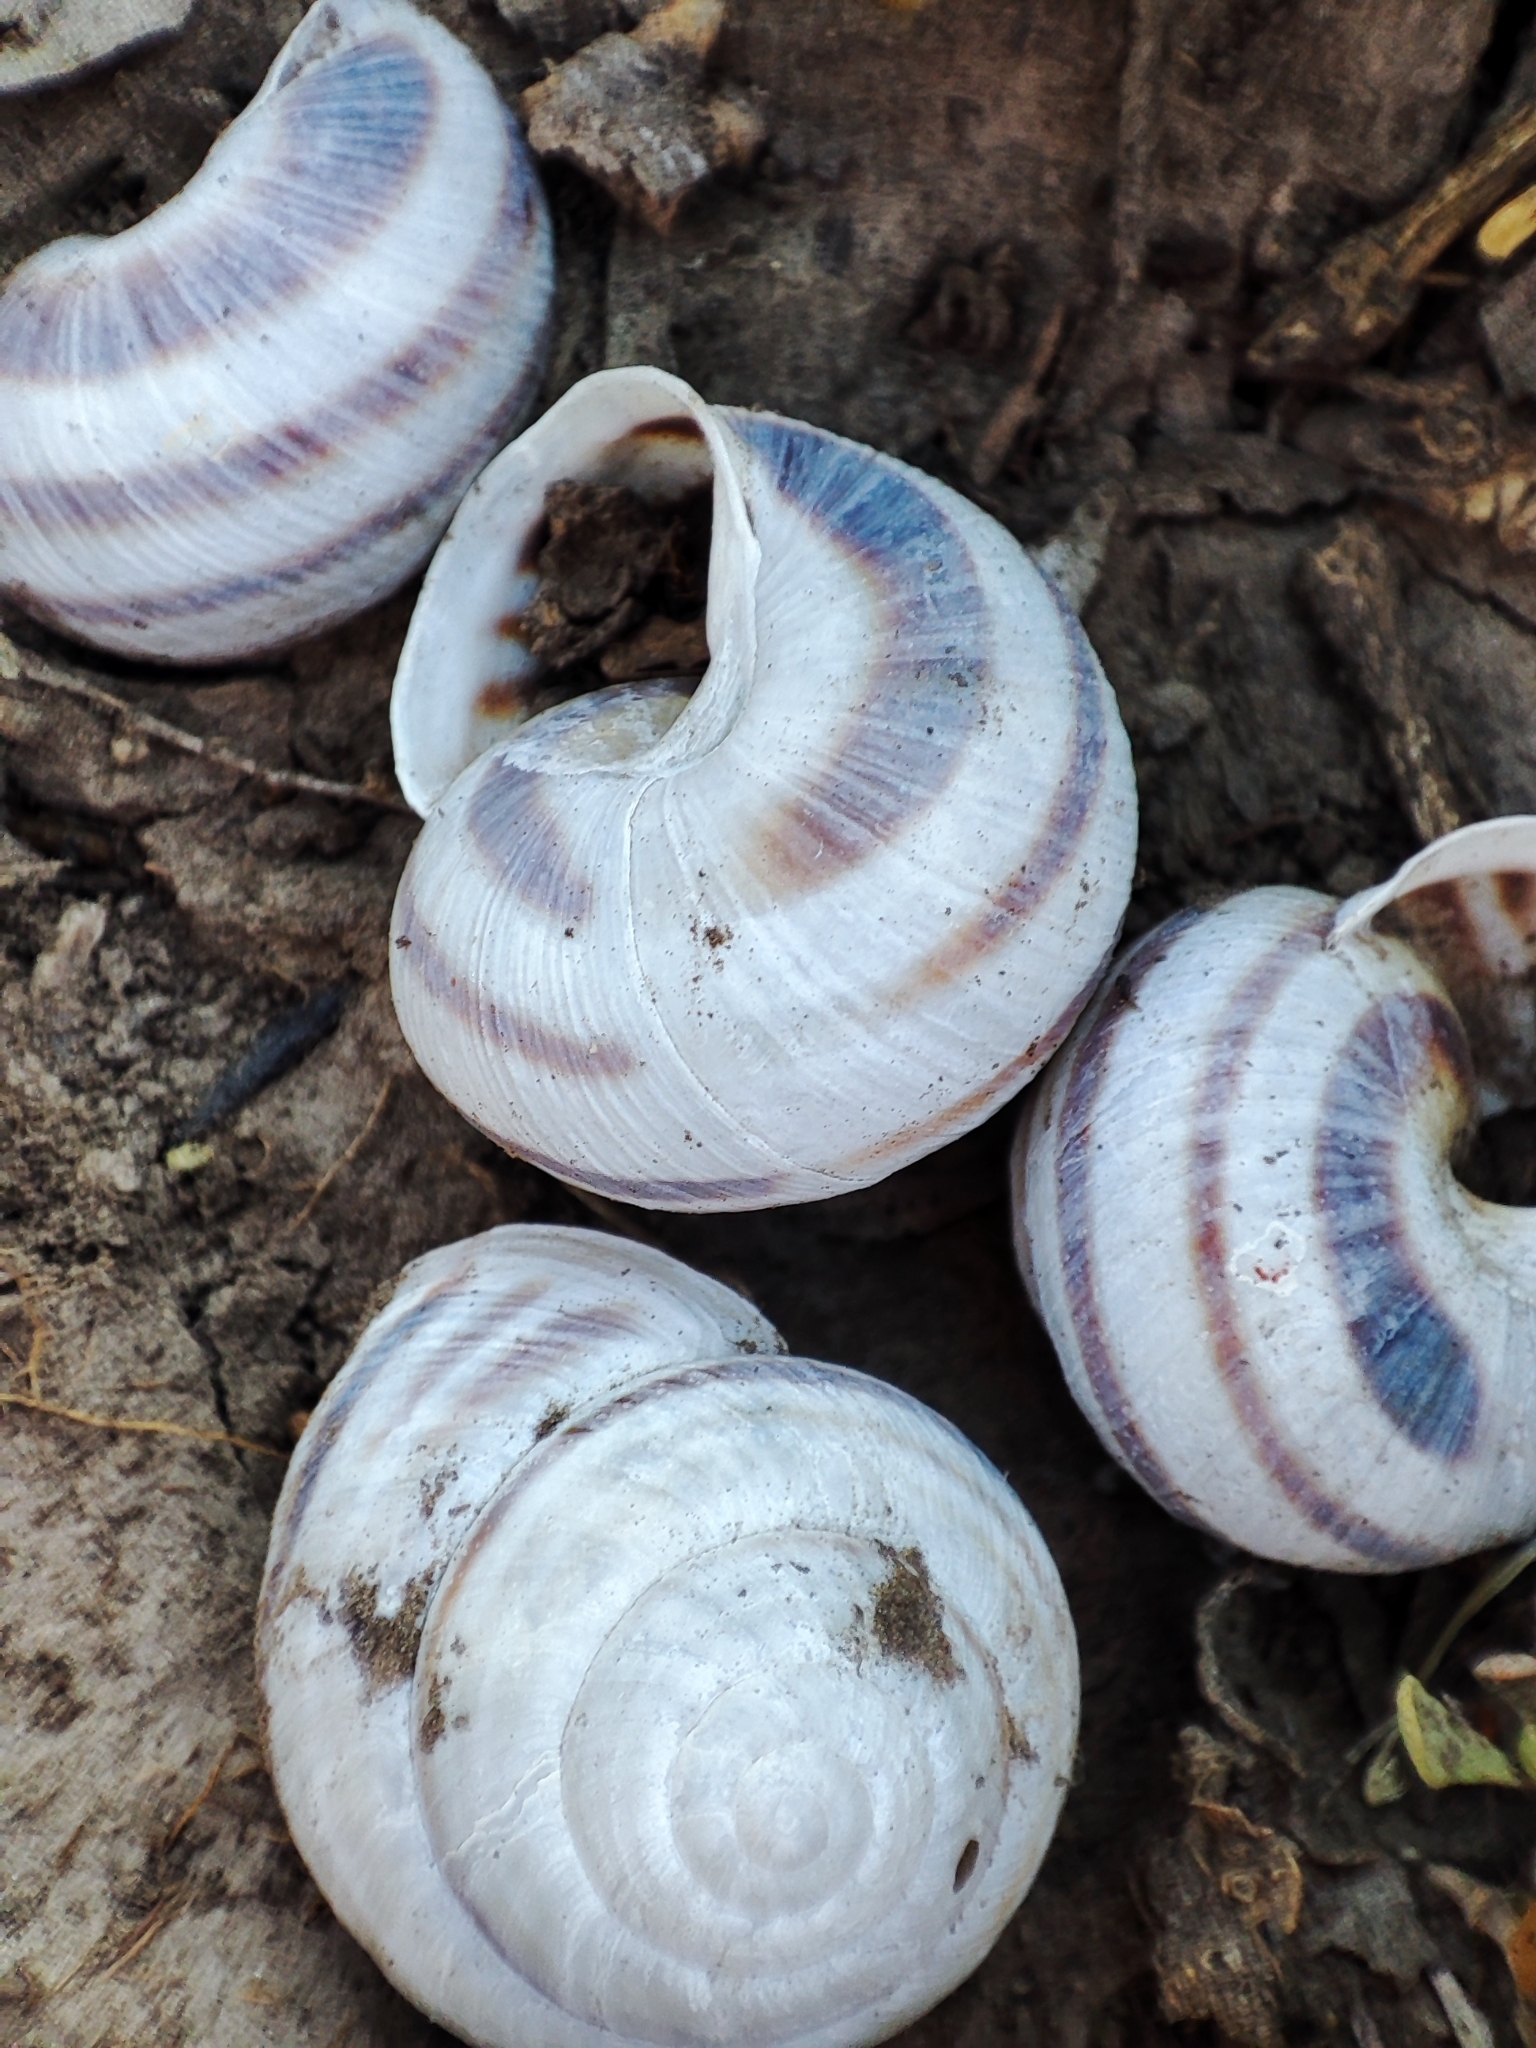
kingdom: Animalia
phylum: Mollusca
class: Gastropoda
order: Stylommatophora
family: Helicidae
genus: Caucasotachea
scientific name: Caucasotachea vindobonensis
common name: European helicid land snail
